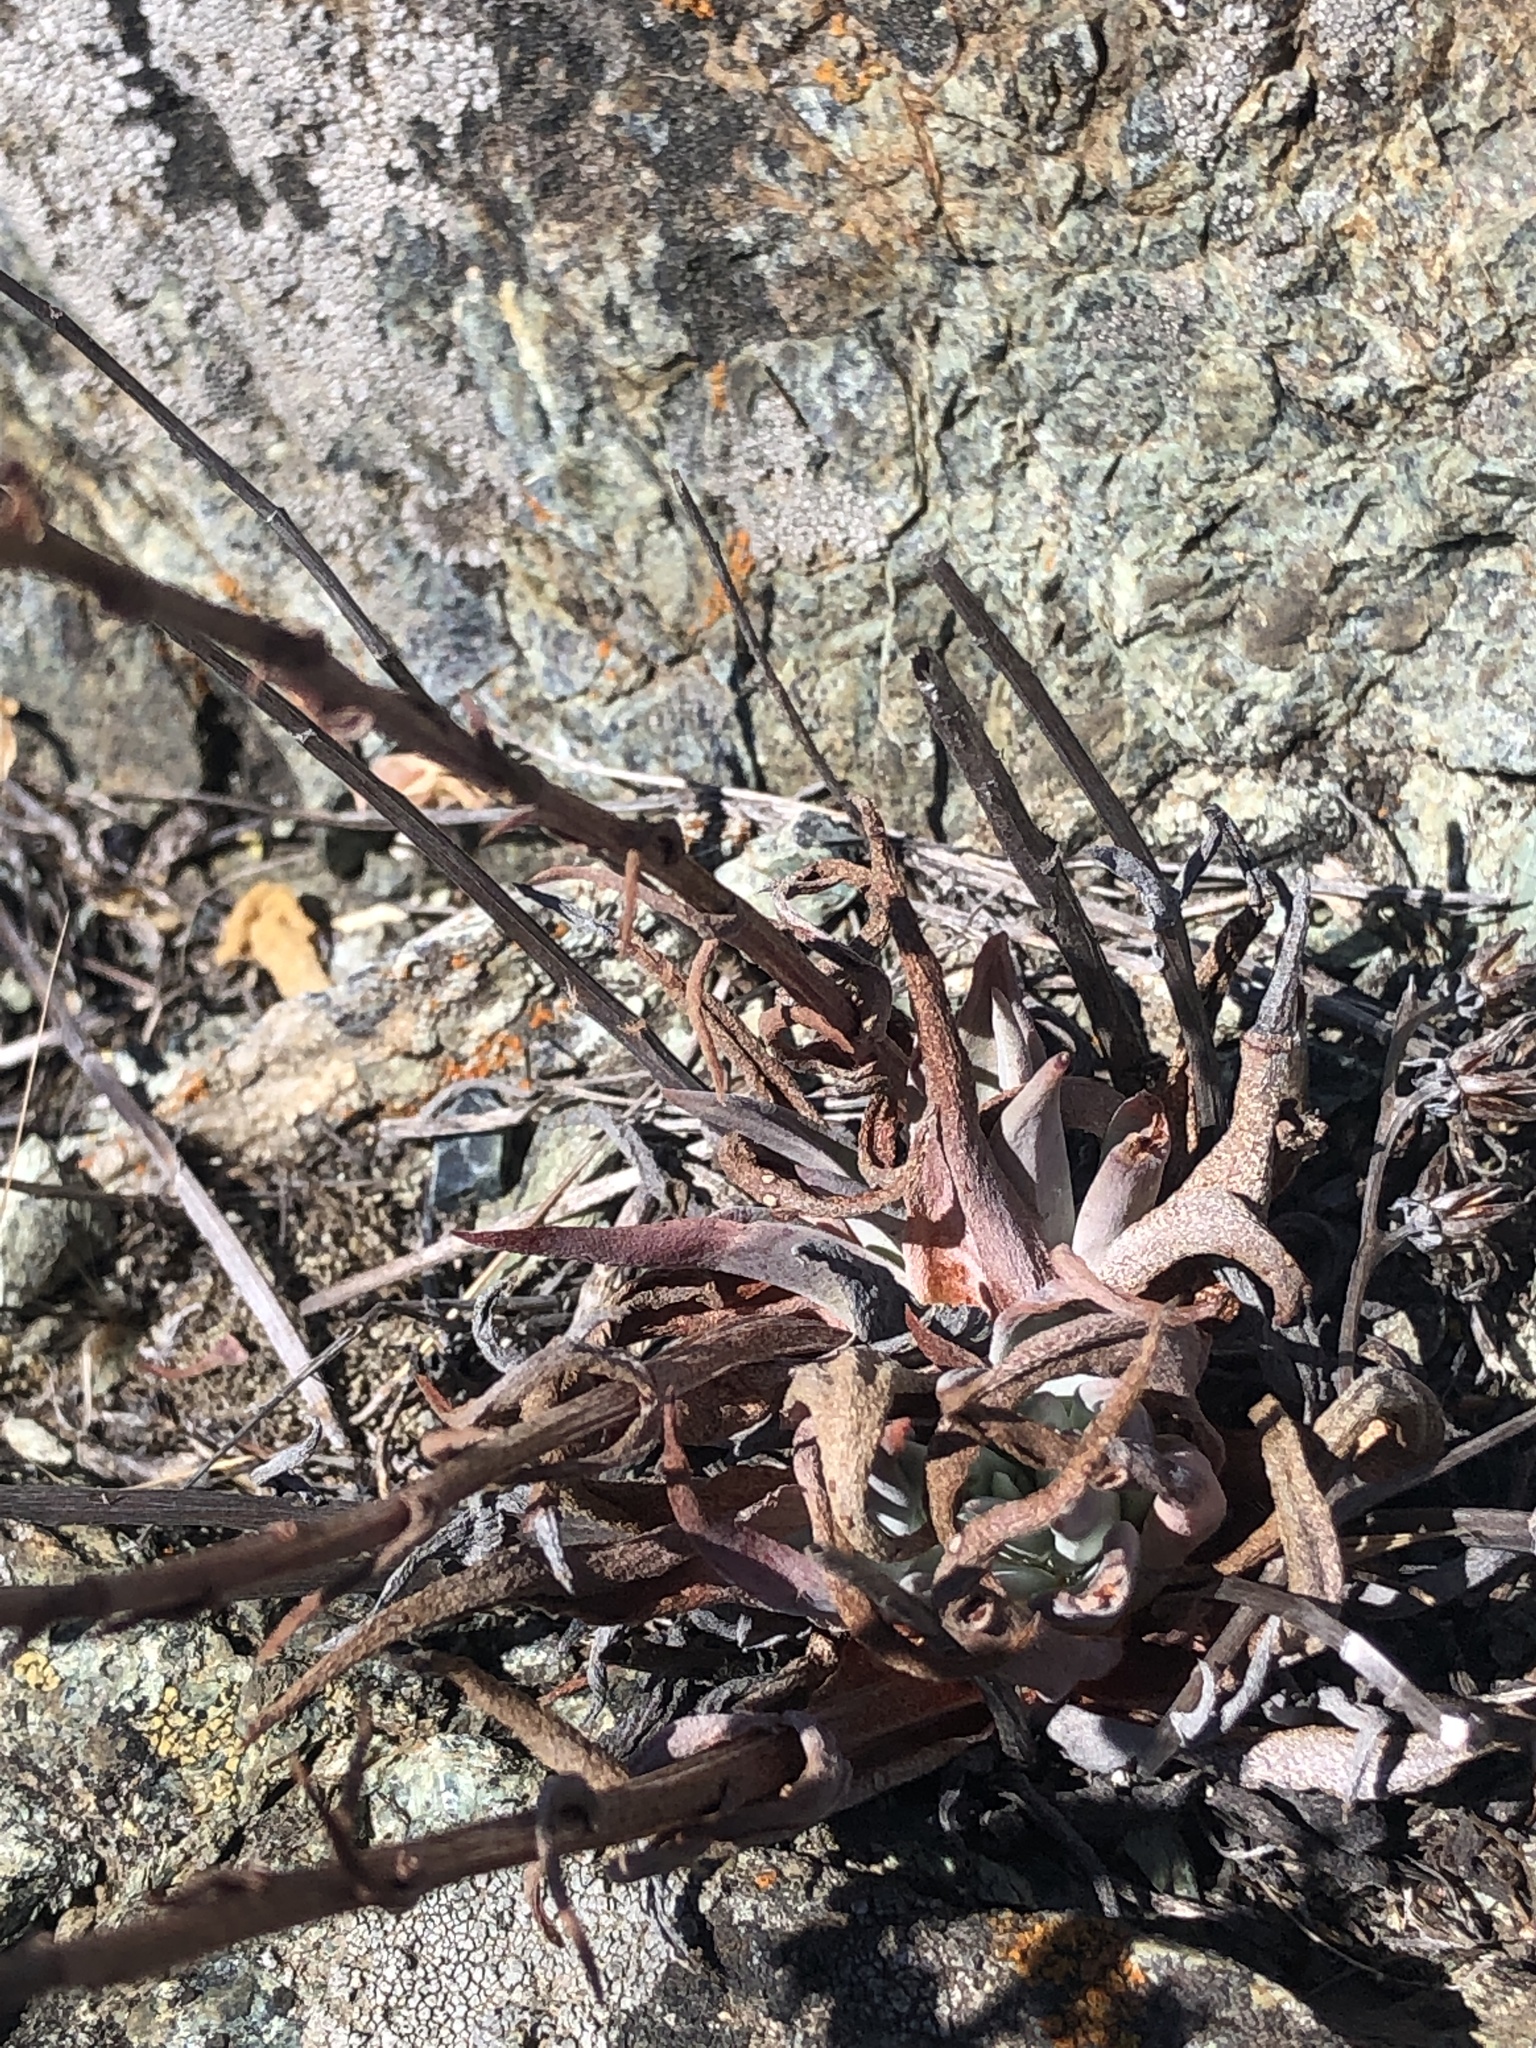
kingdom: Plantae
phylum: Tracheophyta
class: Magnoliopsida
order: Saxifragales
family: Crassulaceae
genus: Dudleya
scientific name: Dudleya abramsii
